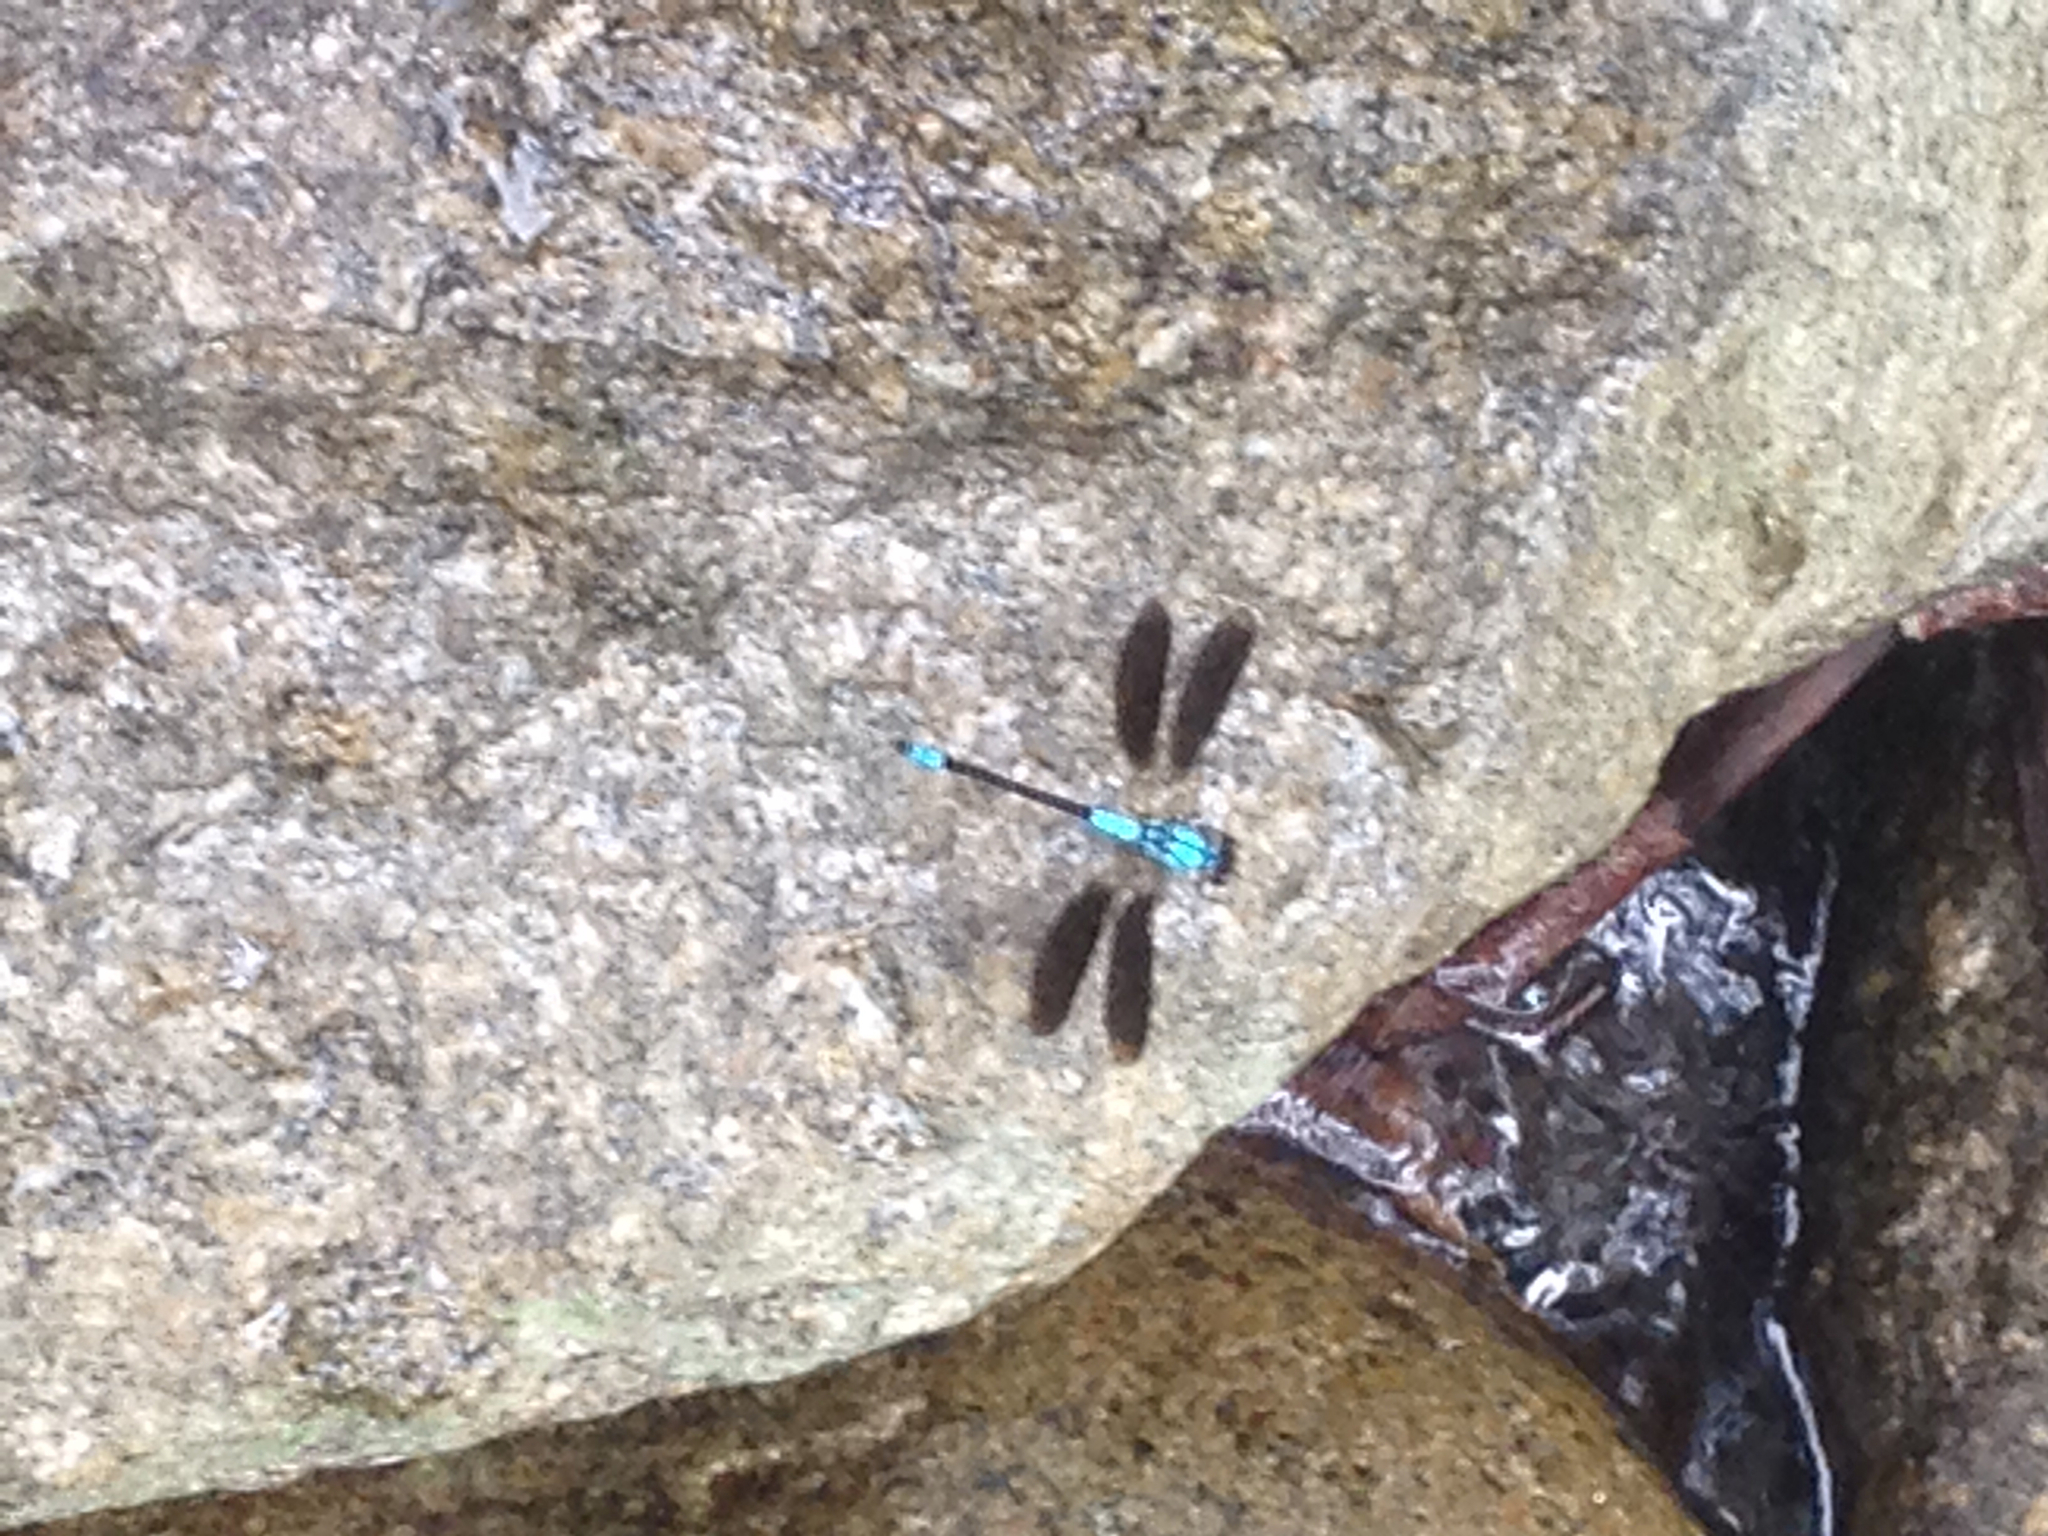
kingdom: Animalia
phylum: Arthropoda
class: Insecta
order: Odonata
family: Lestoideidae
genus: Diphlebia
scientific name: Diphlebia euphoeoides
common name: Tropical rockmaster
